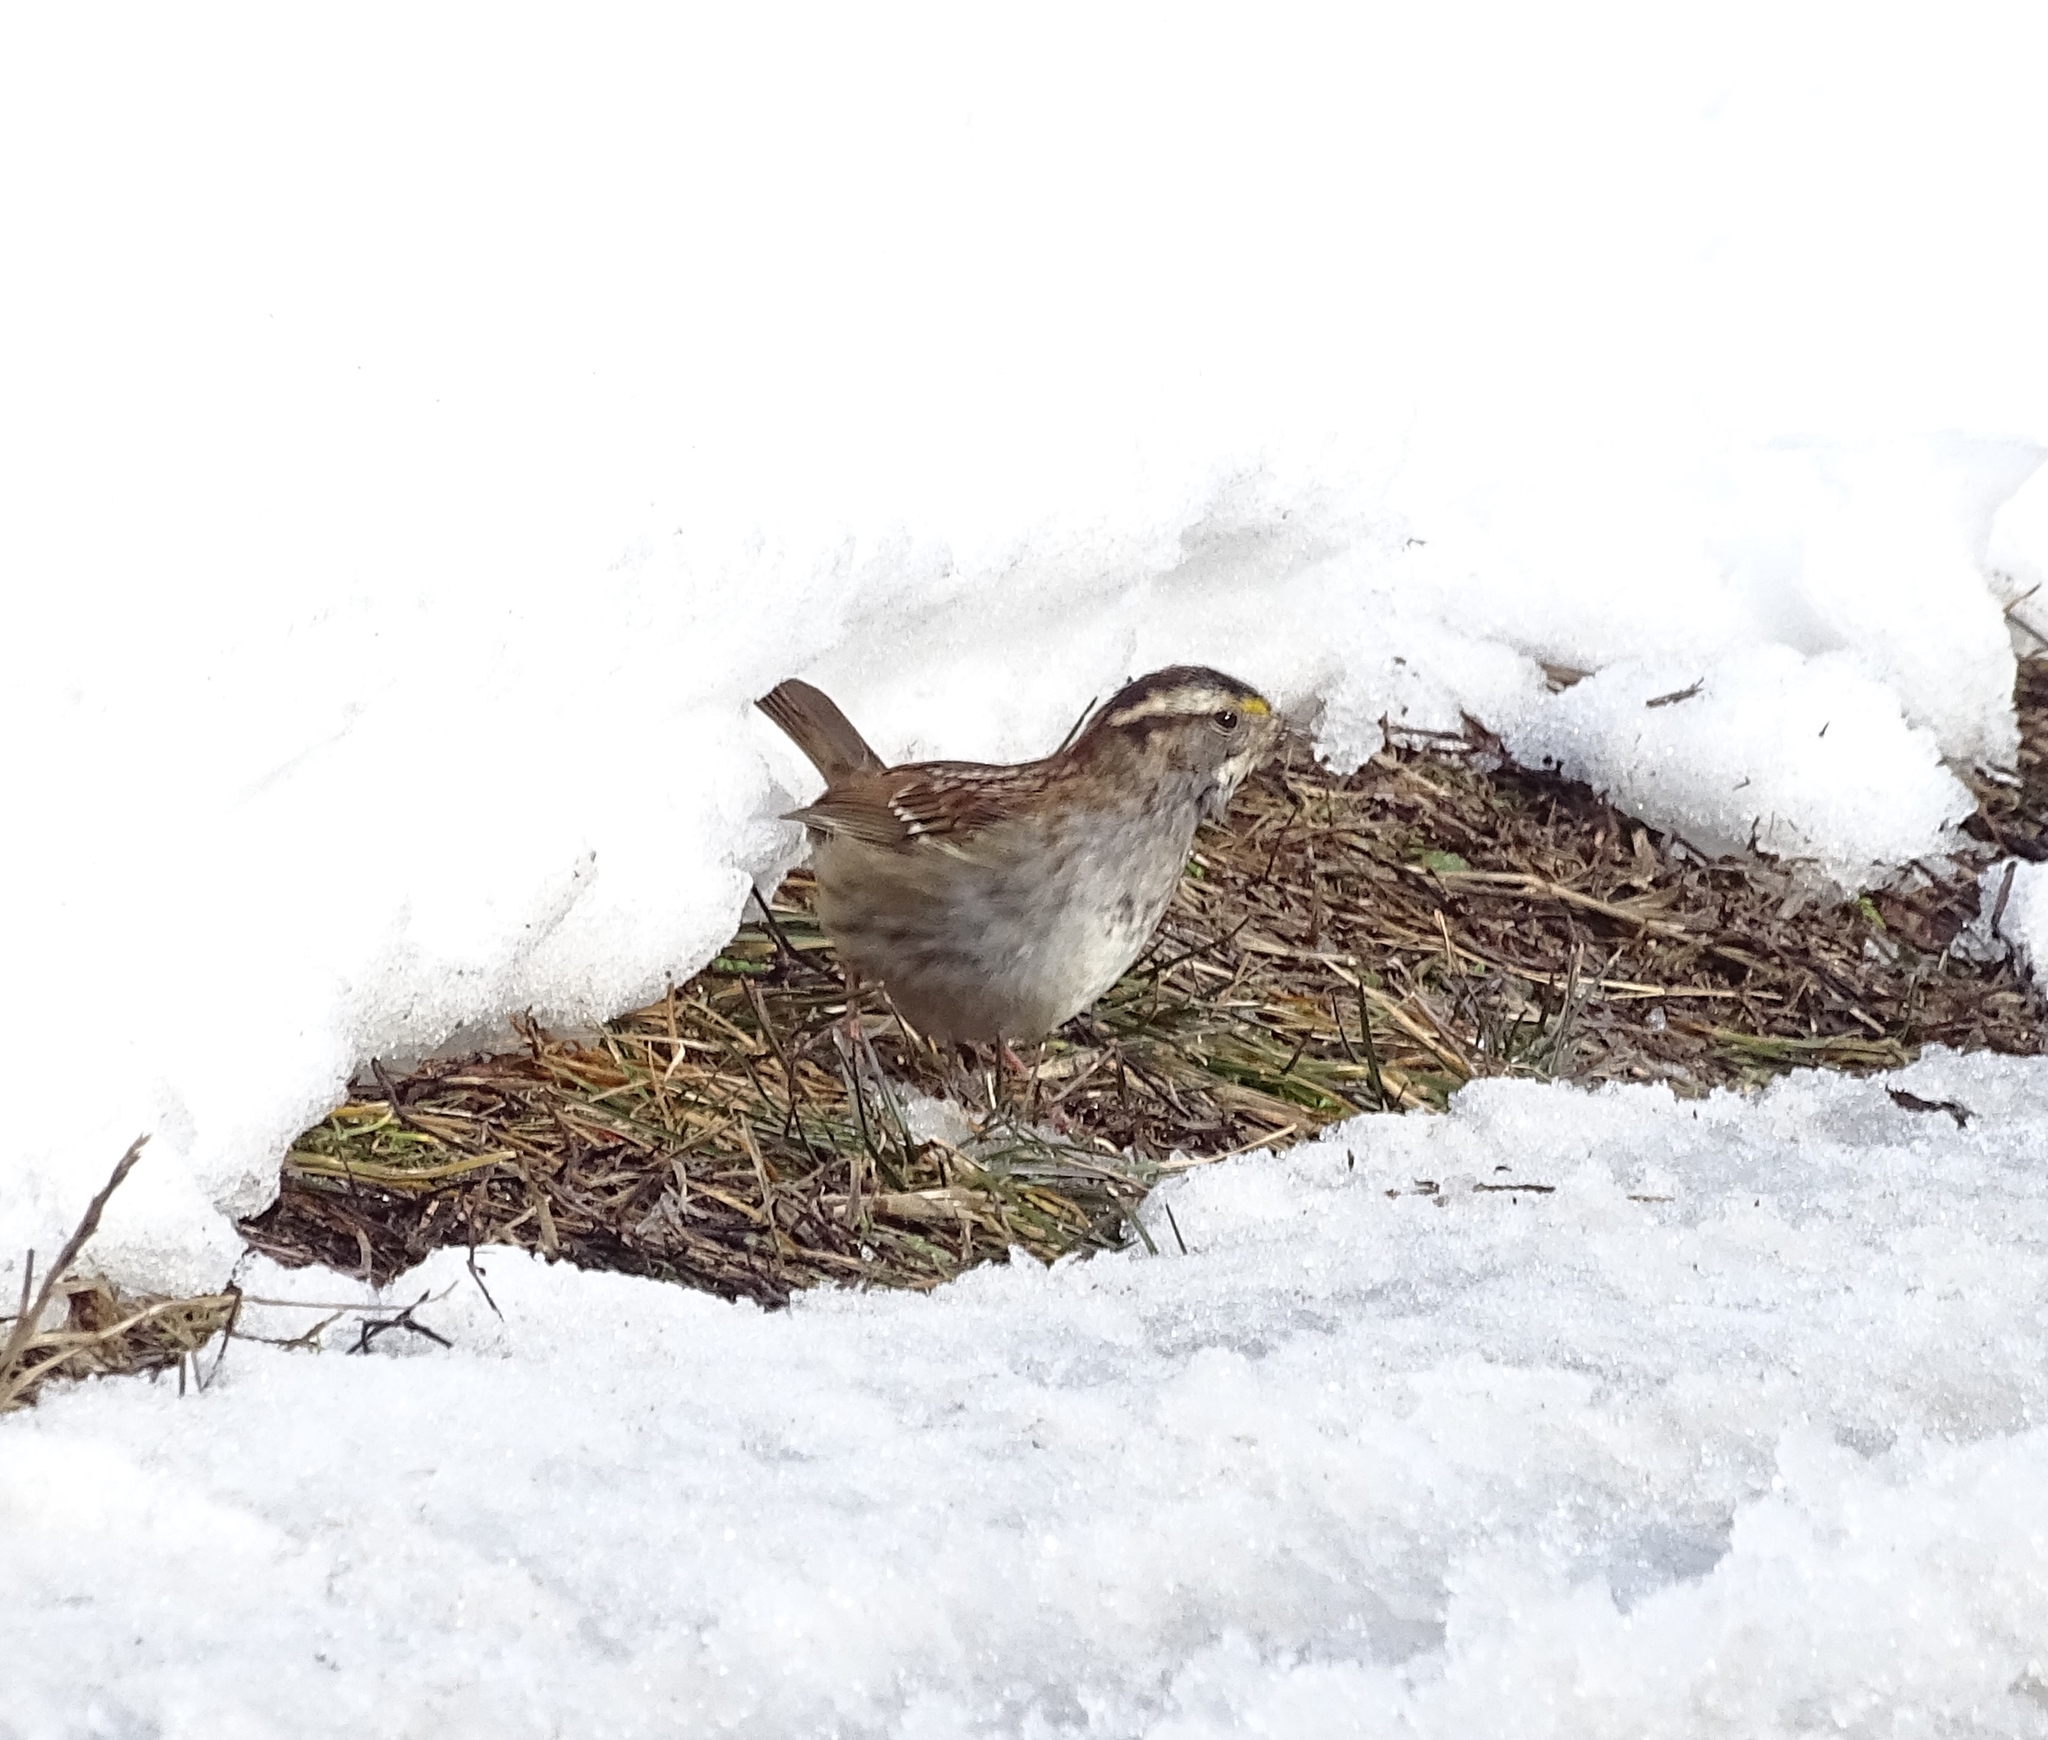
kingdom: Animalia
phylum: Chordata
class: Aves
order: Passeriformes
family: Passerellidae
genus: Zonotrichia
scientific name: Zonotrichia albicollis
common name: White-throated sparrow
